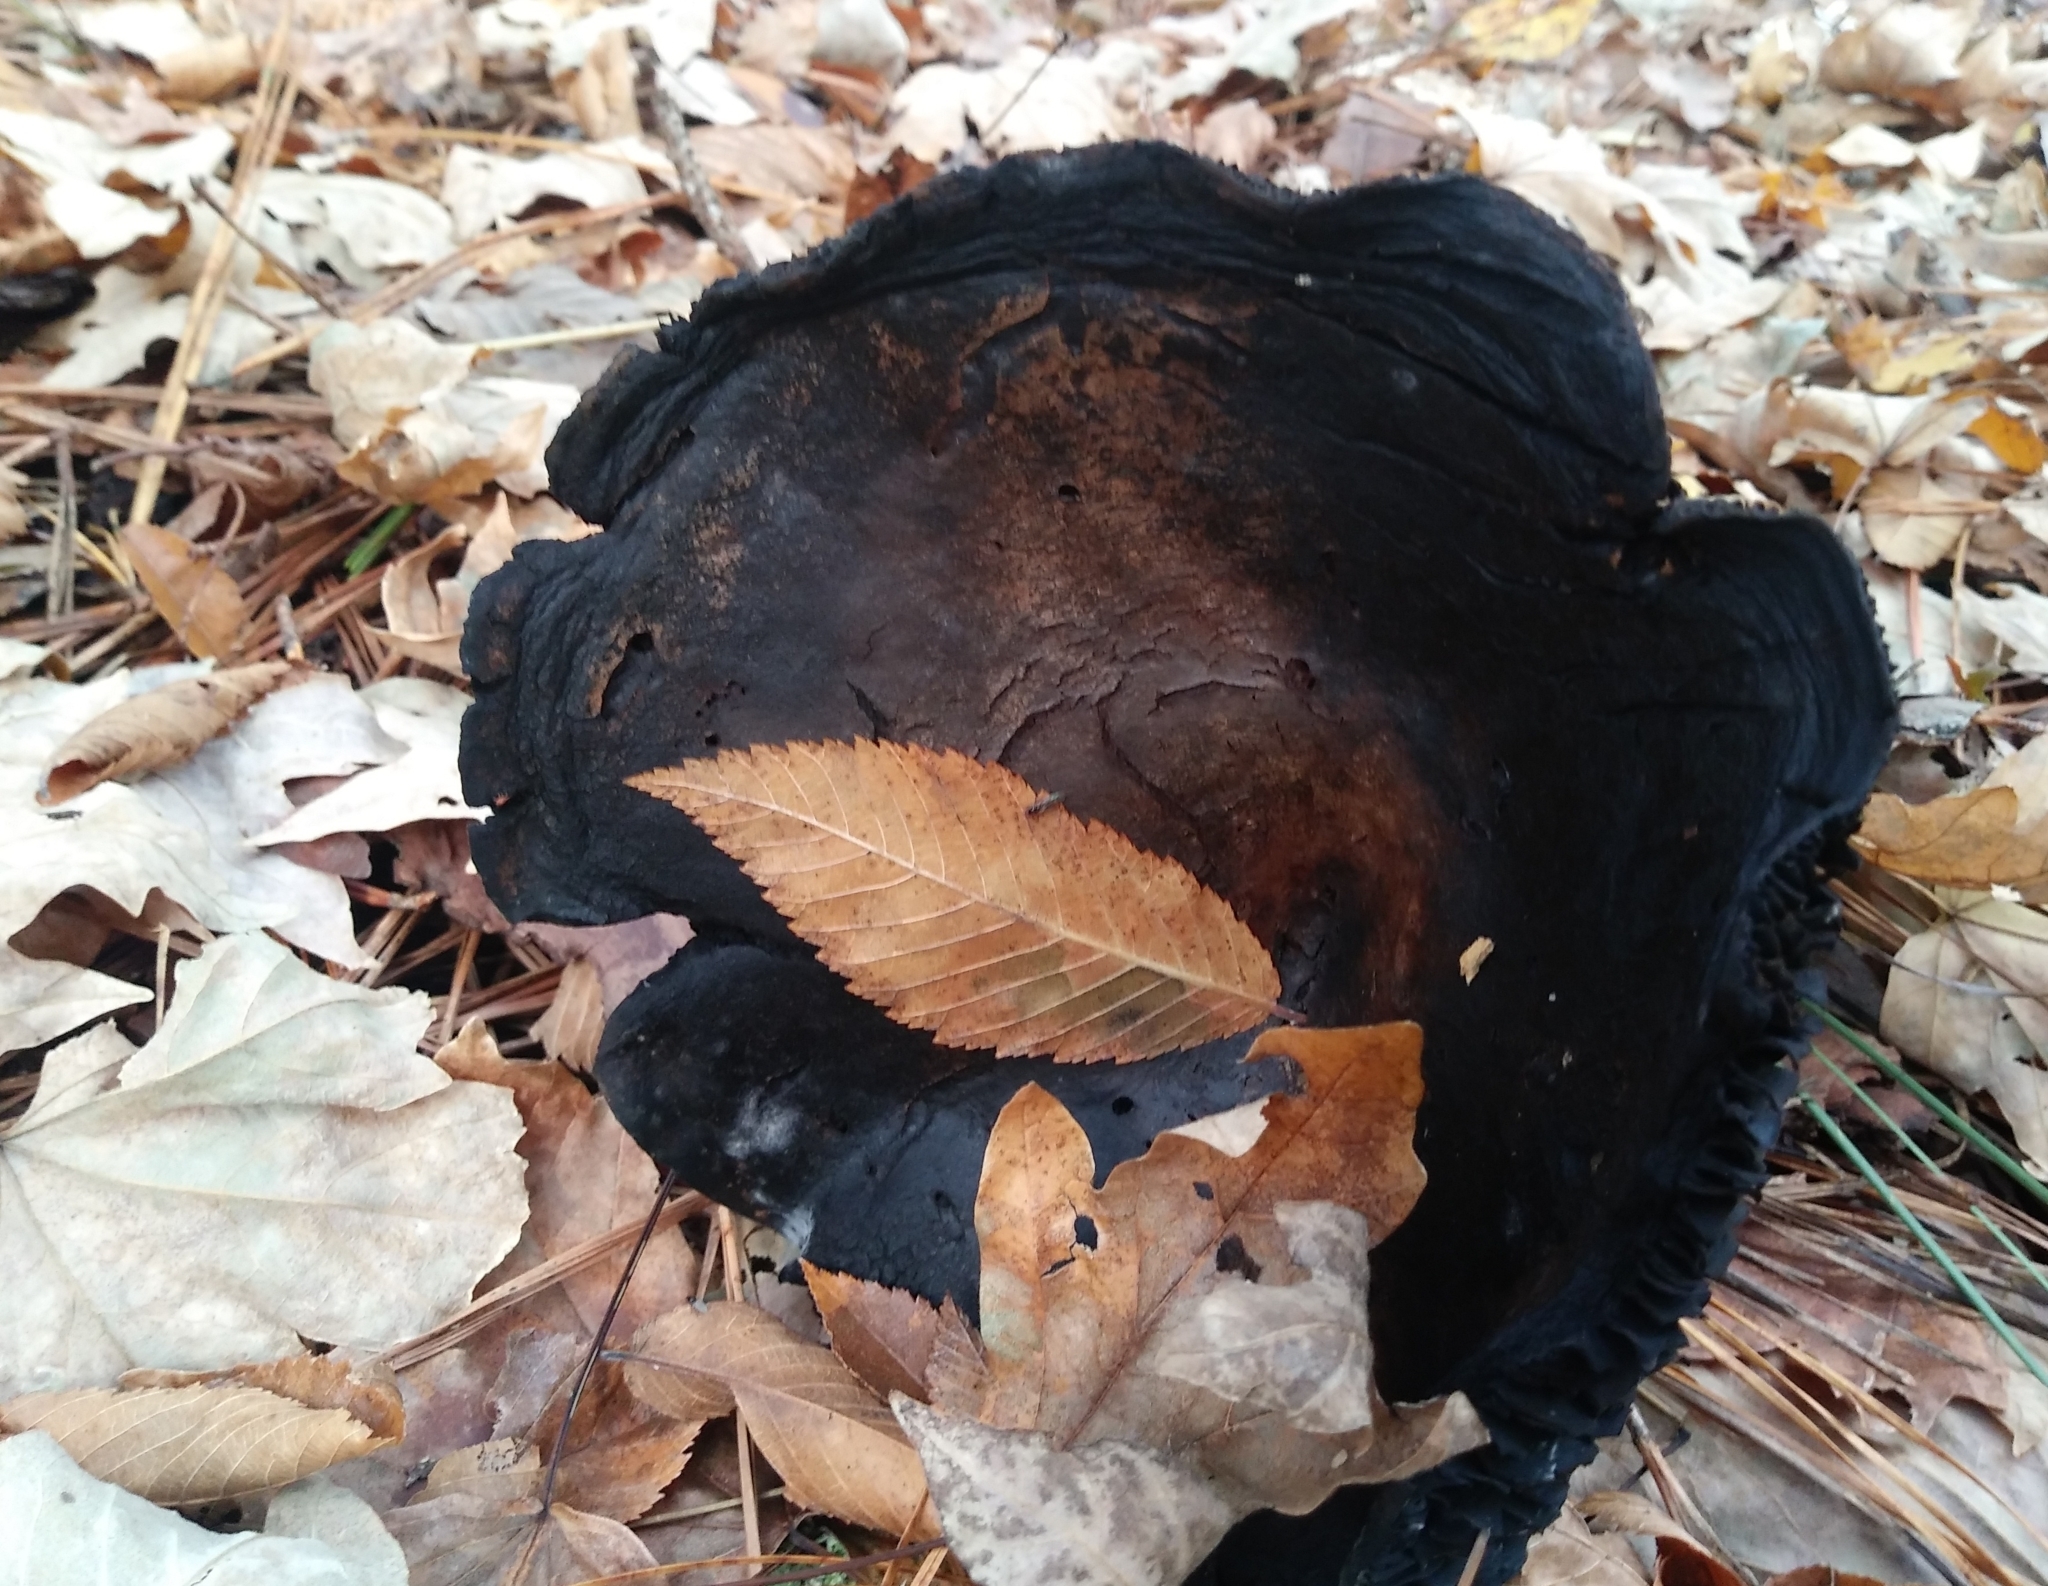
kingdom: Fungi
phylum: Basidiomycota
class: Agaricomycetes
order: Russulales
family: Russulaceae
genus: Russula
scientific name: Russula dissimulans
